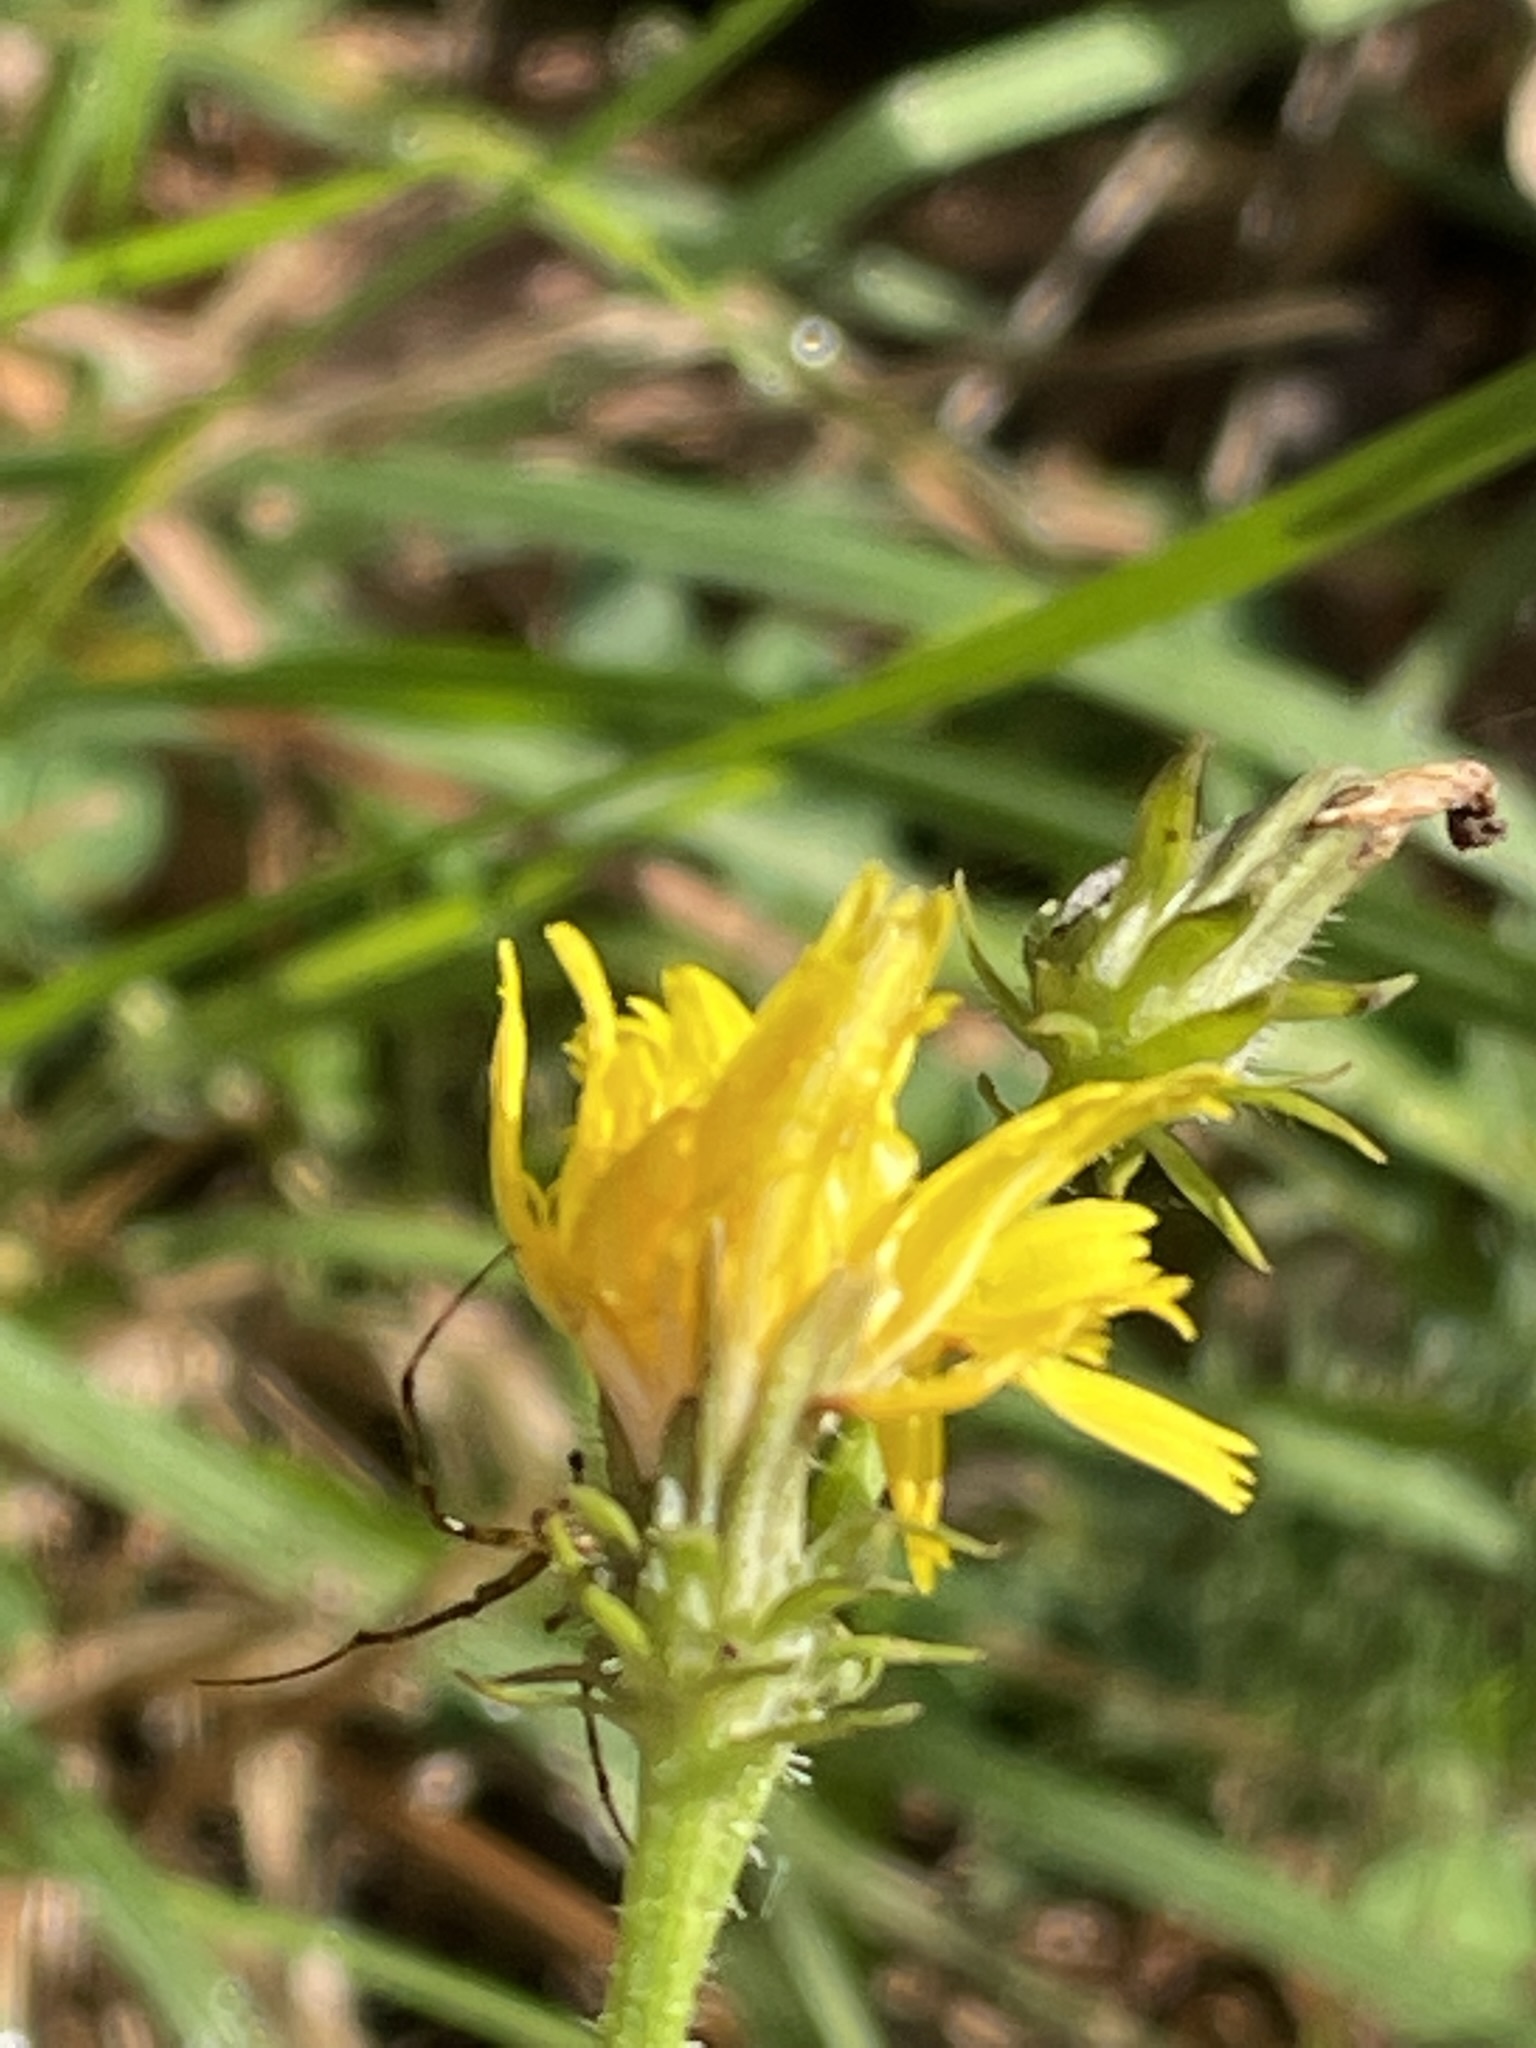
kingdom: Plantae
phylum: Tracheophyta
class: Magnoliopsida
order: Asterales
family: Asteraceae
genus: Picris
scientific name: Picris hieracioides
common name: Hawkweed oxtongue
